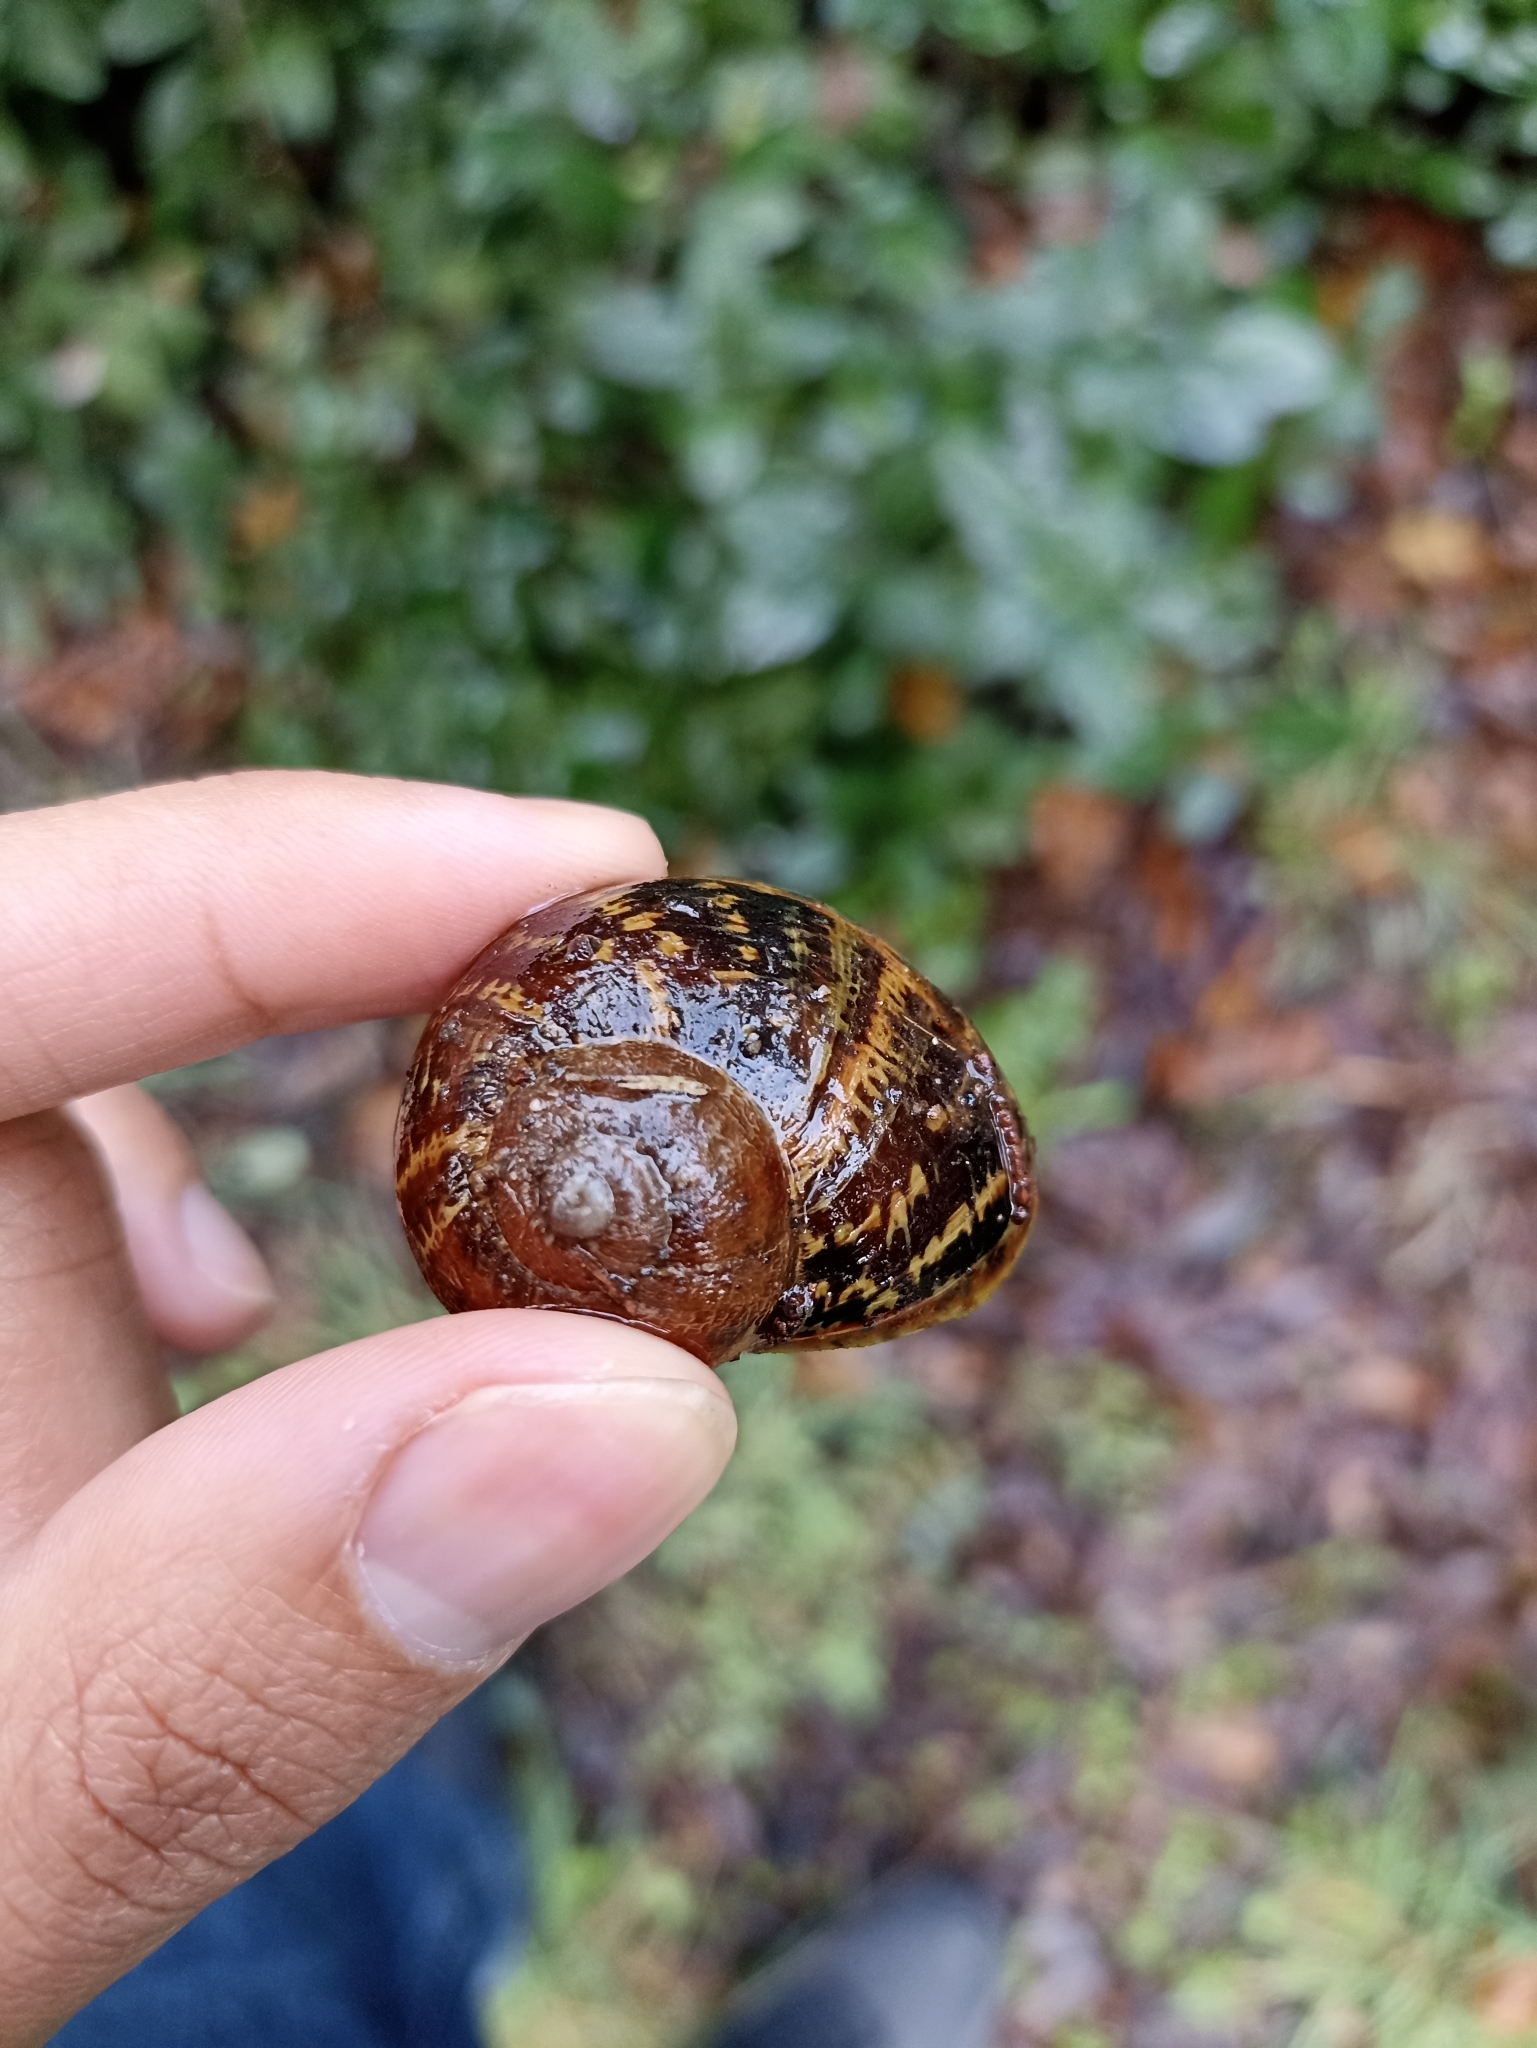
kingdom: Animalia
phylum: Mollusca
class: Gastropoda
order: Stylommatophora
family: Helicidae
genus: Cornu
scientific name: Cornu aspersum
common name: Brown garden snail
